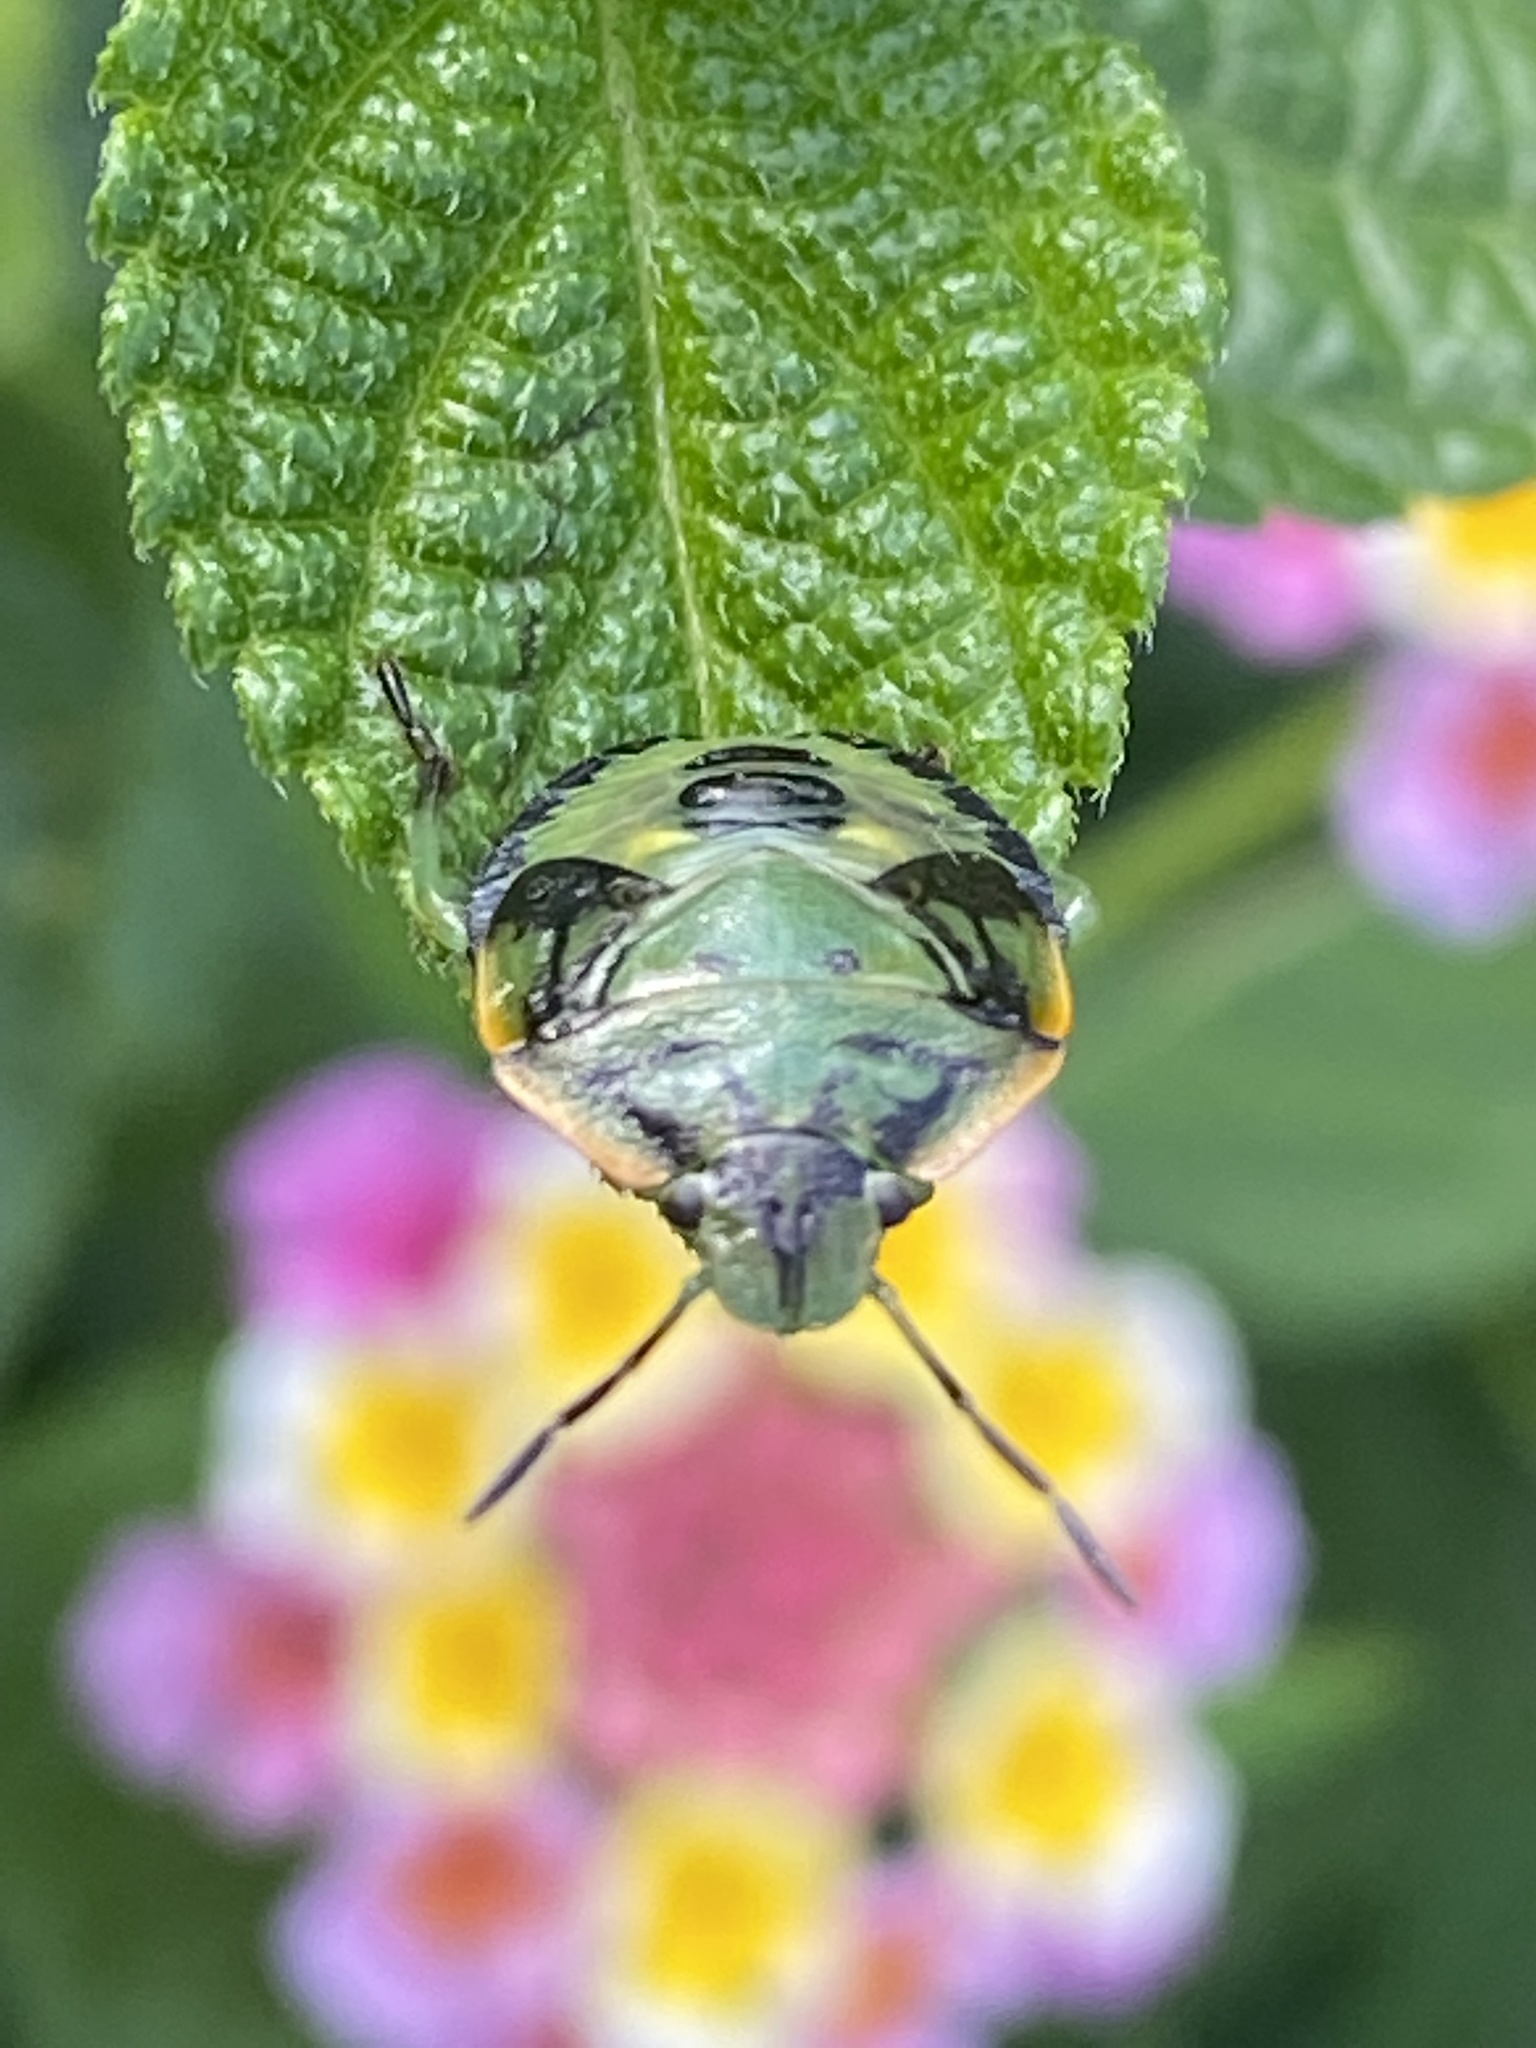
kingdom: Animalia
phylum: Arthropoda
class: Insecta
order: Hemiptera
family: Pentatomidae
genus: Chinavia
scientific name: Chinavia hilaris
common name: Green stink bug
